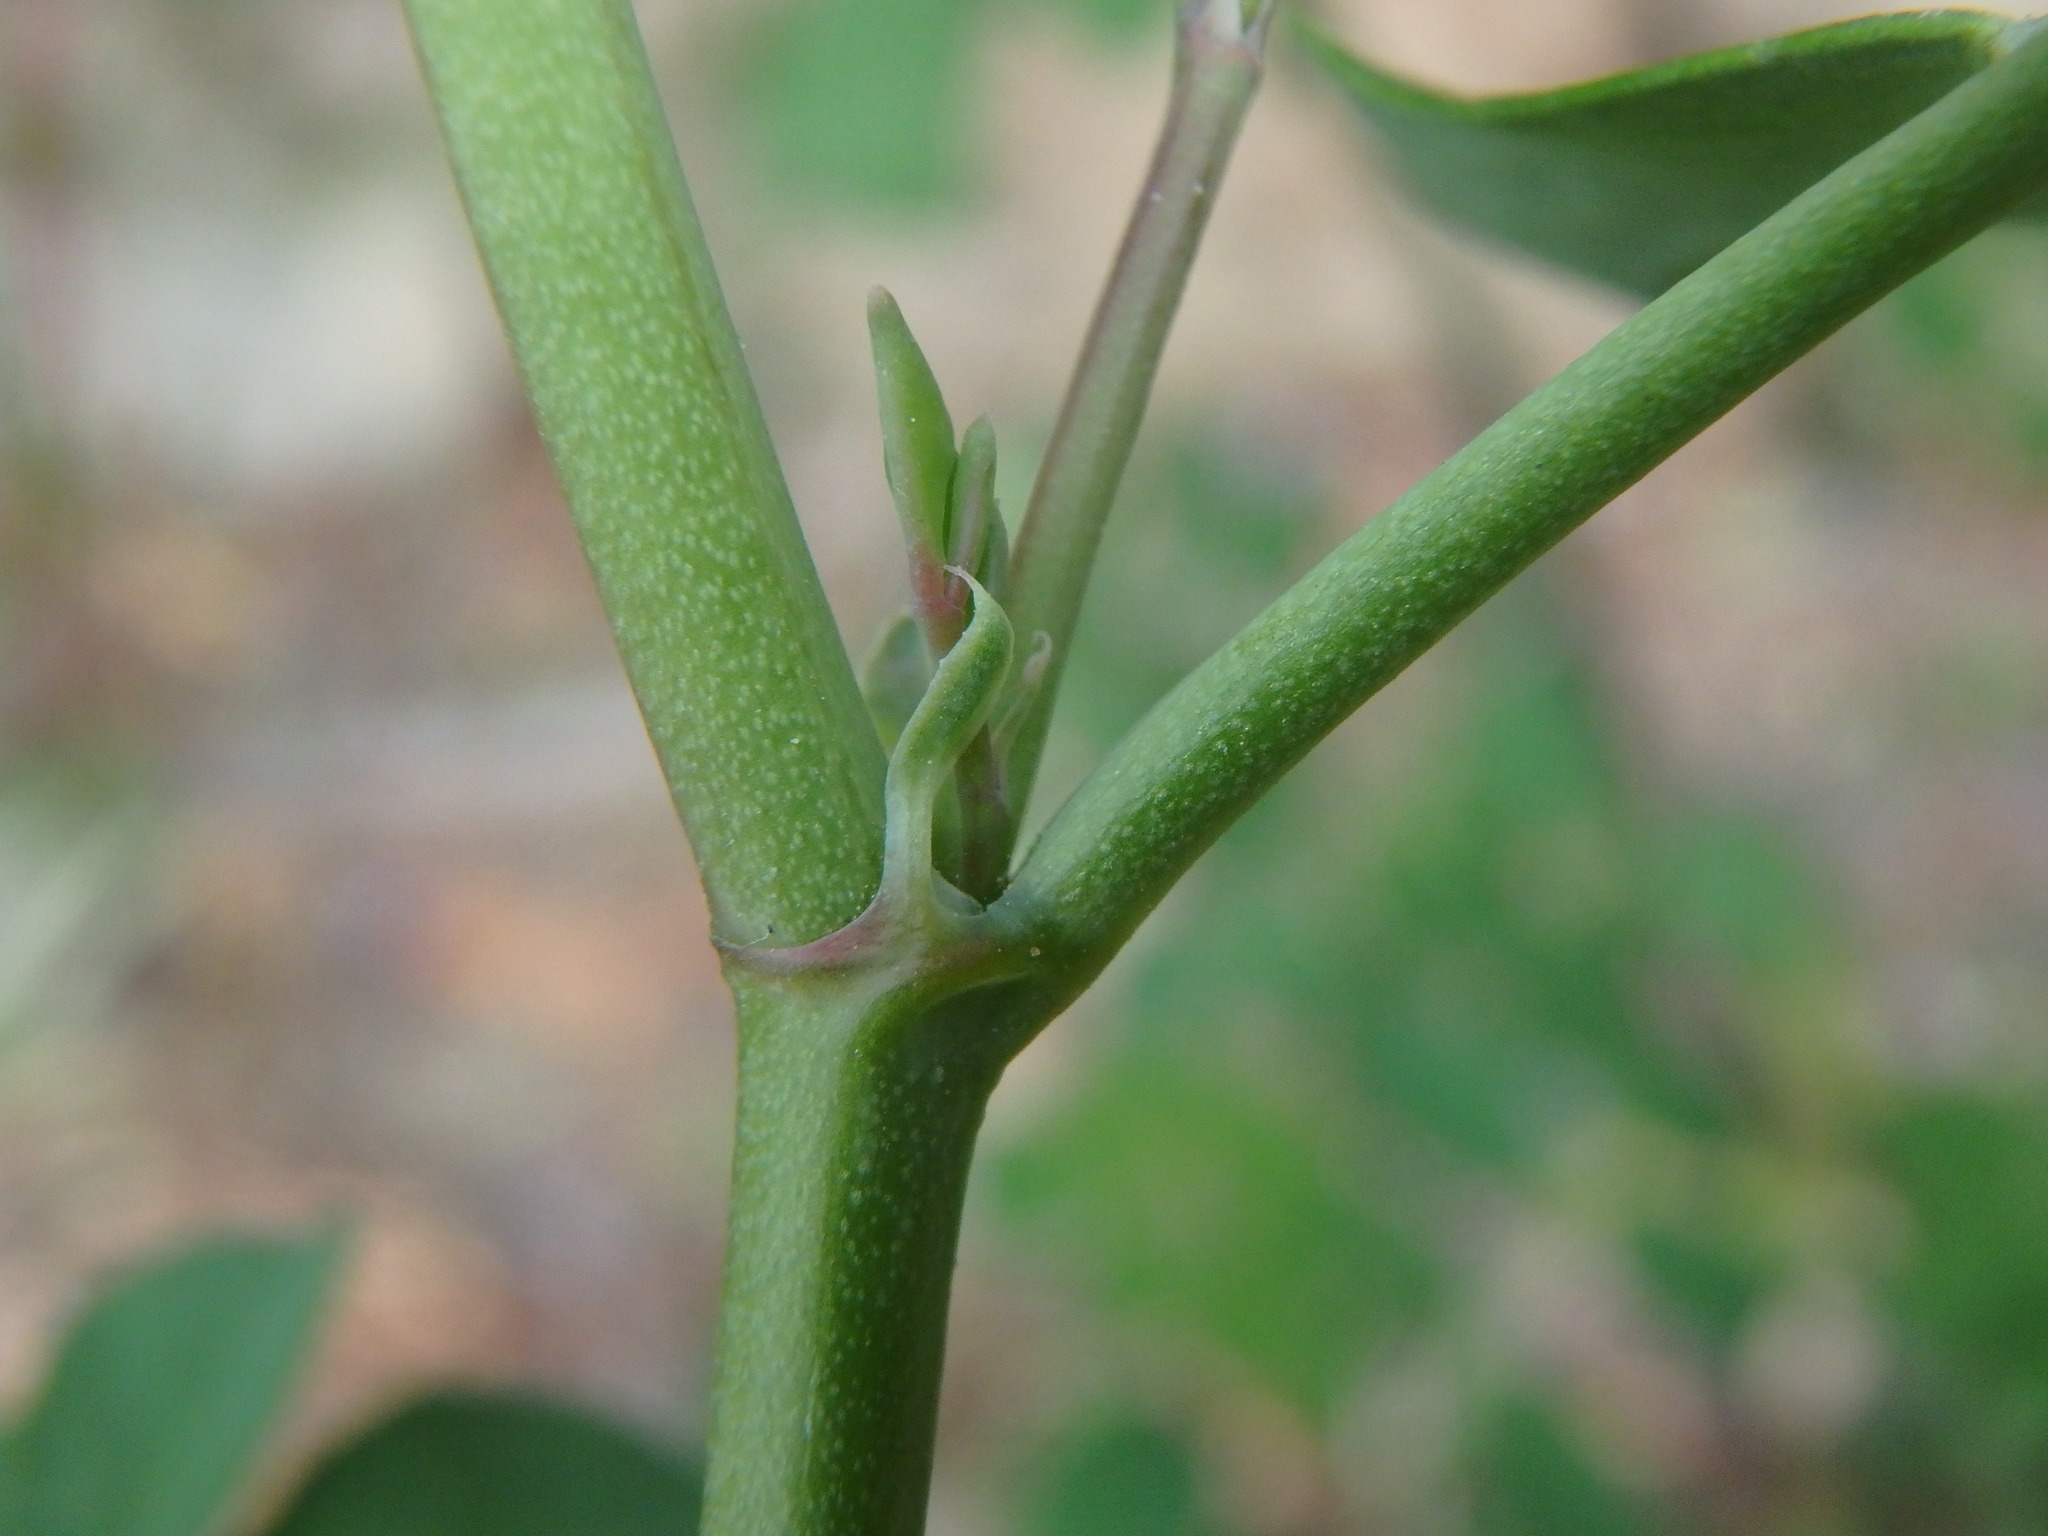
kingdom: Plantae
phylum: Tracheophyta
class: Magnoliopsida
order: Fabales
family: Fabaceae
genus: Coronilla
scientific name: Coronilla valentina
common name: Shrubby scorpion-vetch
